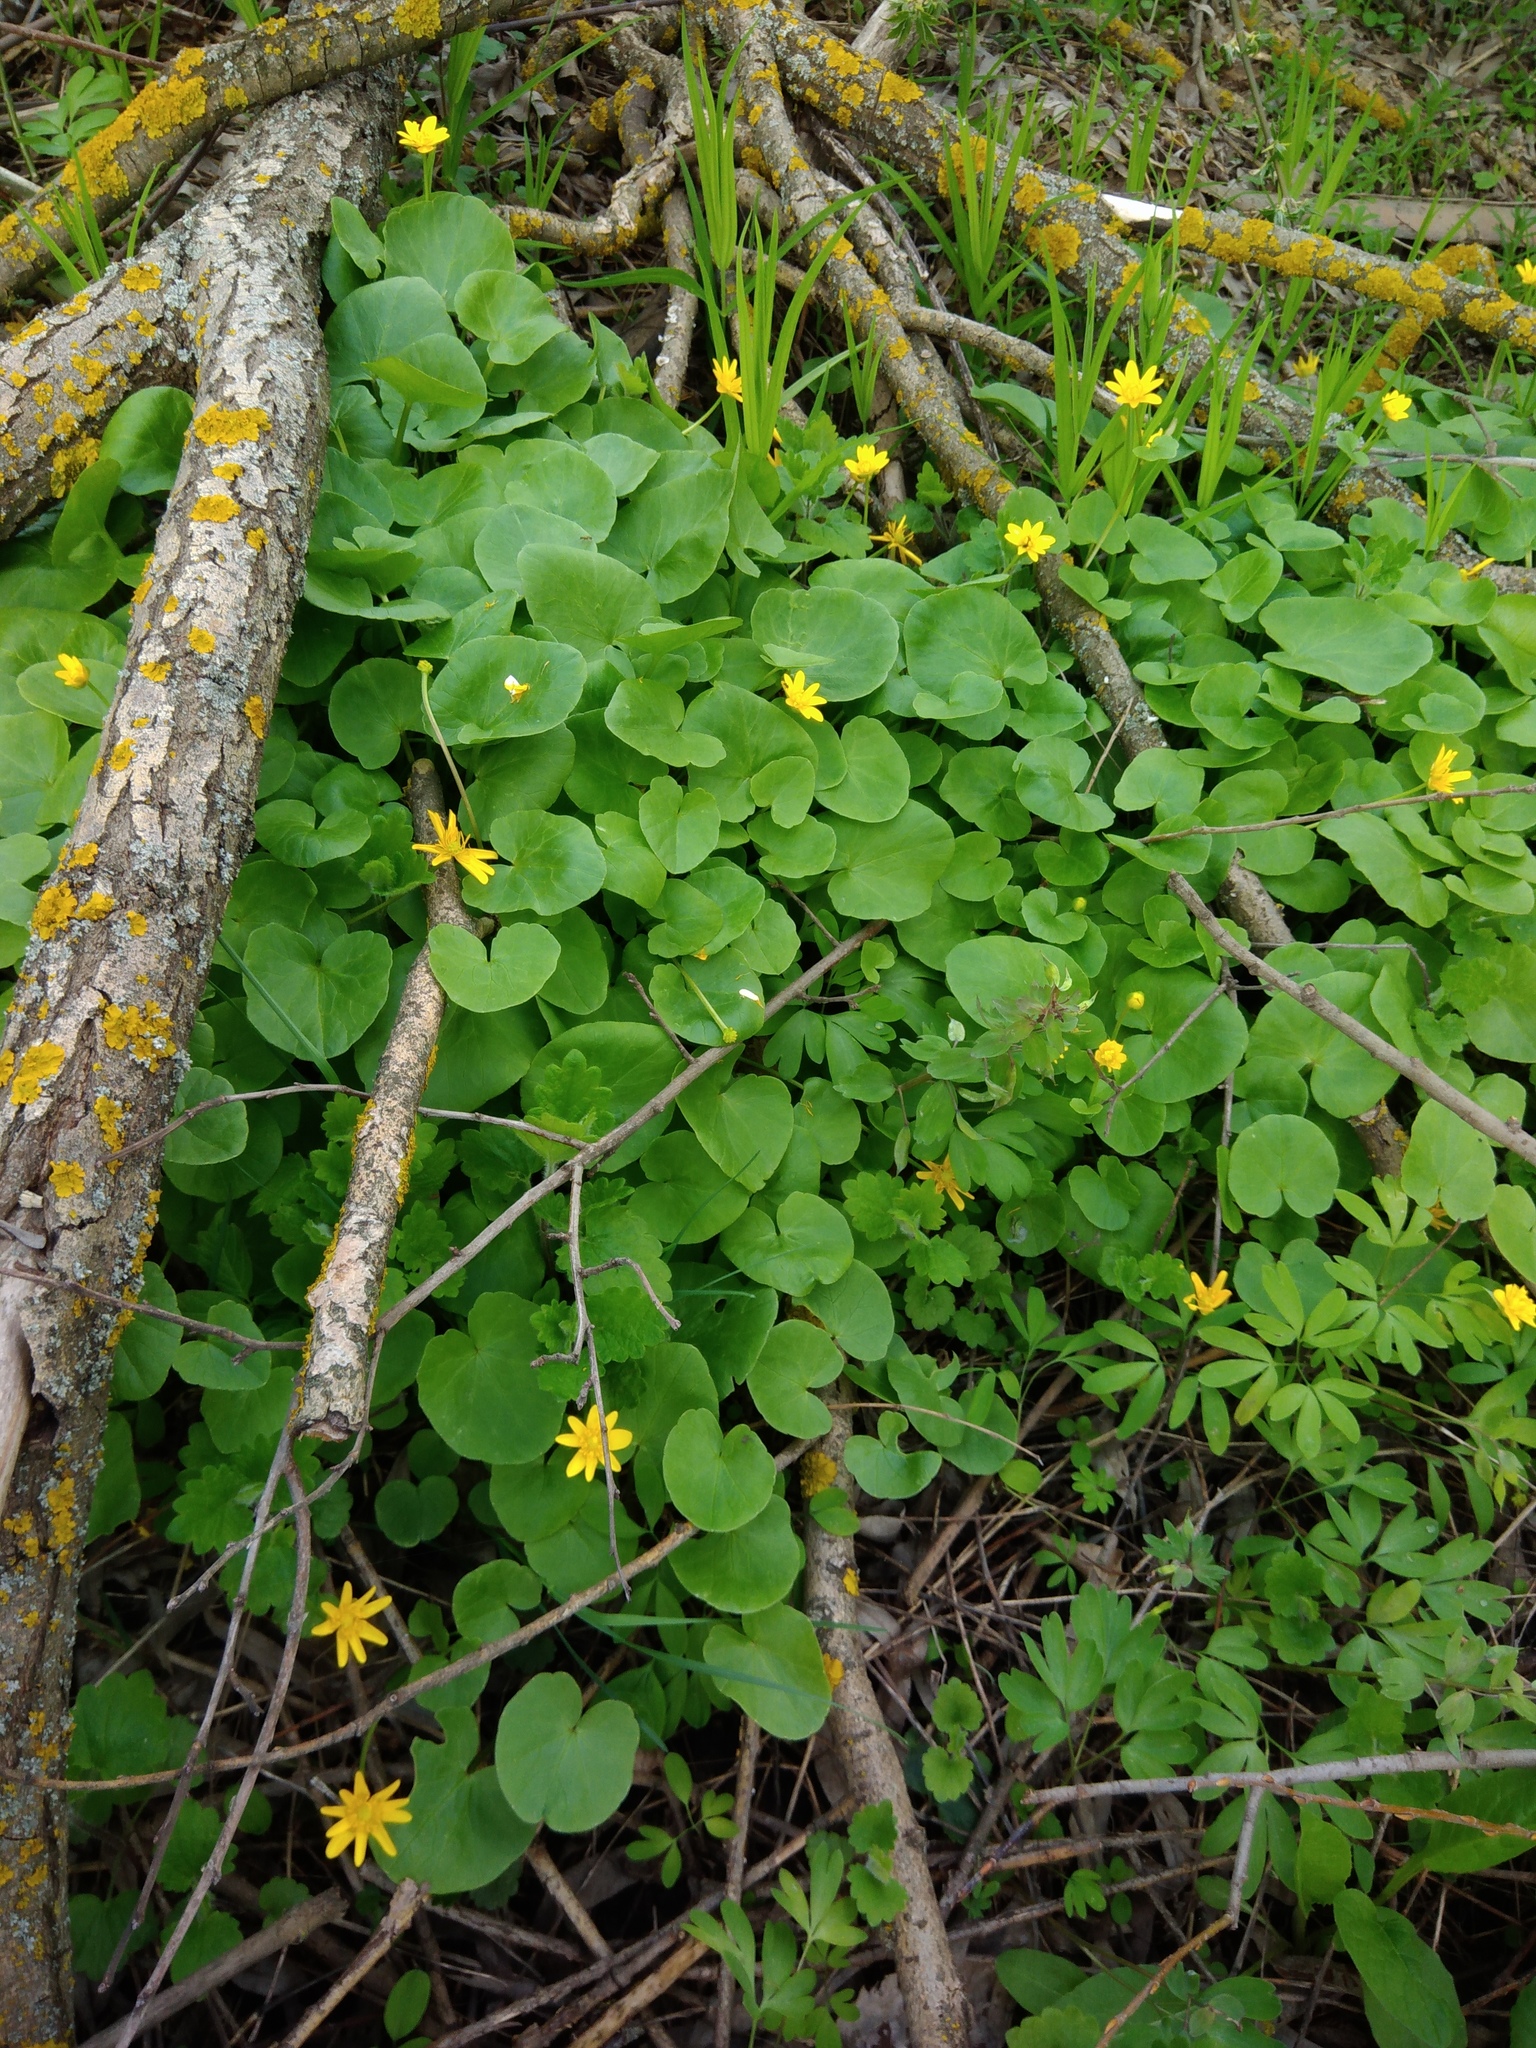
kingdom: Plantae
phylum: Tracheophyta
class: Magnoliopsida
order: Ranunculales
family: Ranunculaceae
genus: Ficaria
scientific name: Ficaria verna
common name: Lesser celandine
